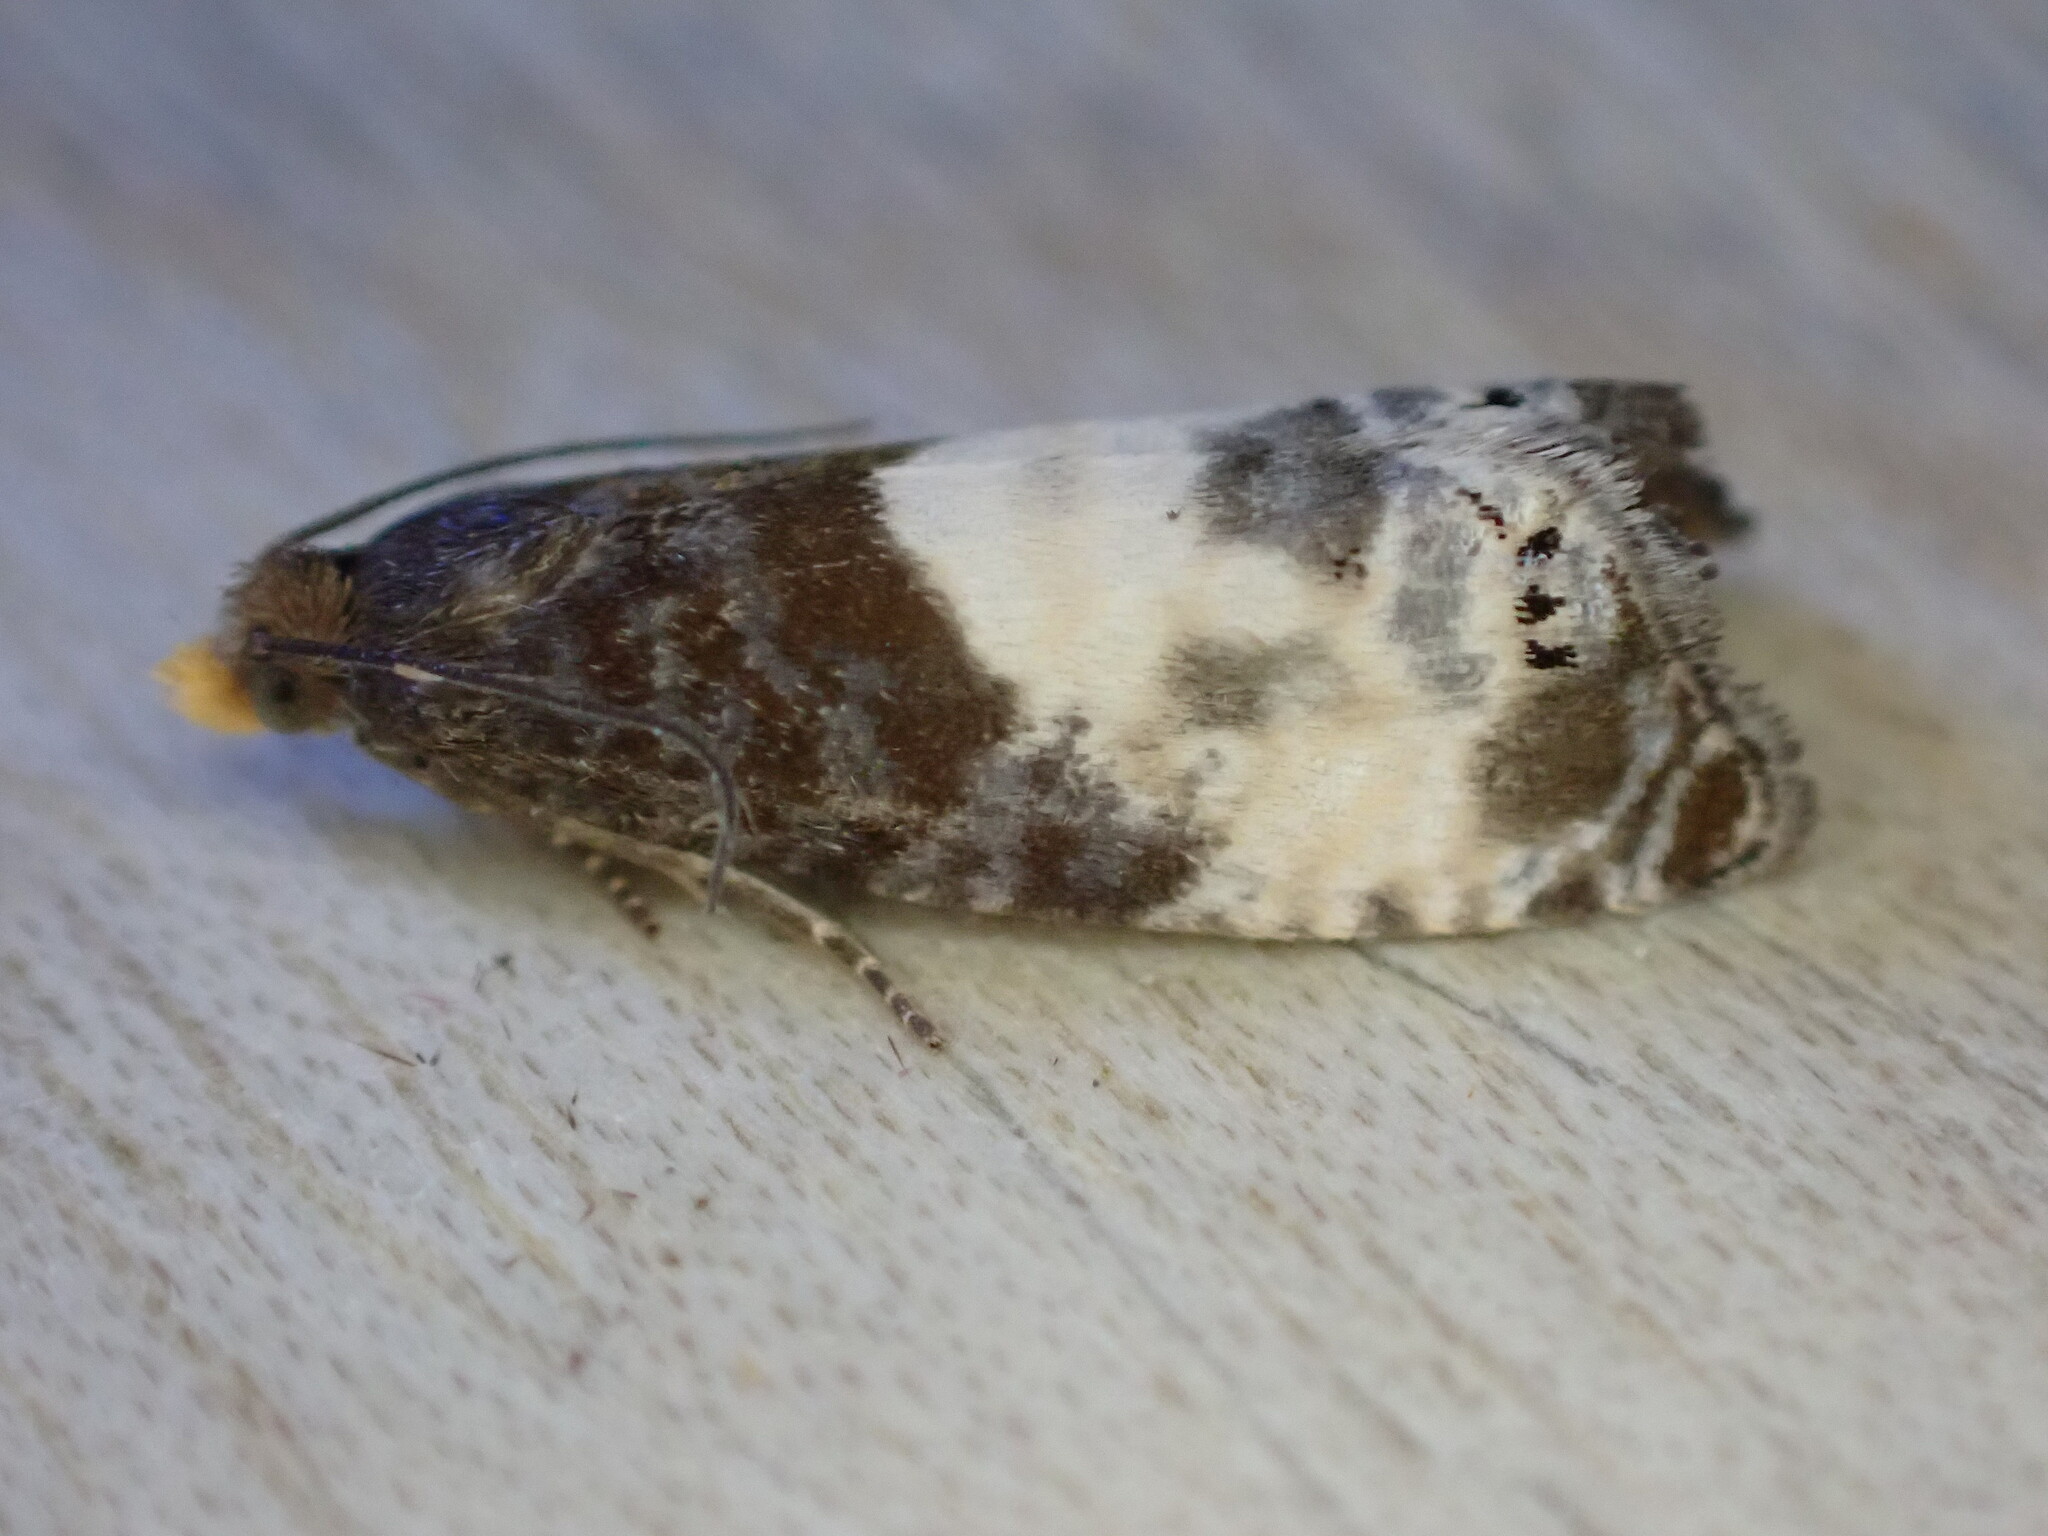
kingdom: Animalia
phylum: Arthropoda
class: Insecta
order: Lepidoptera
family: Tortricidae
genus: Notocelia
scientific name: Notocelia cynosbatella
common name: Yellow-faced bell moth
